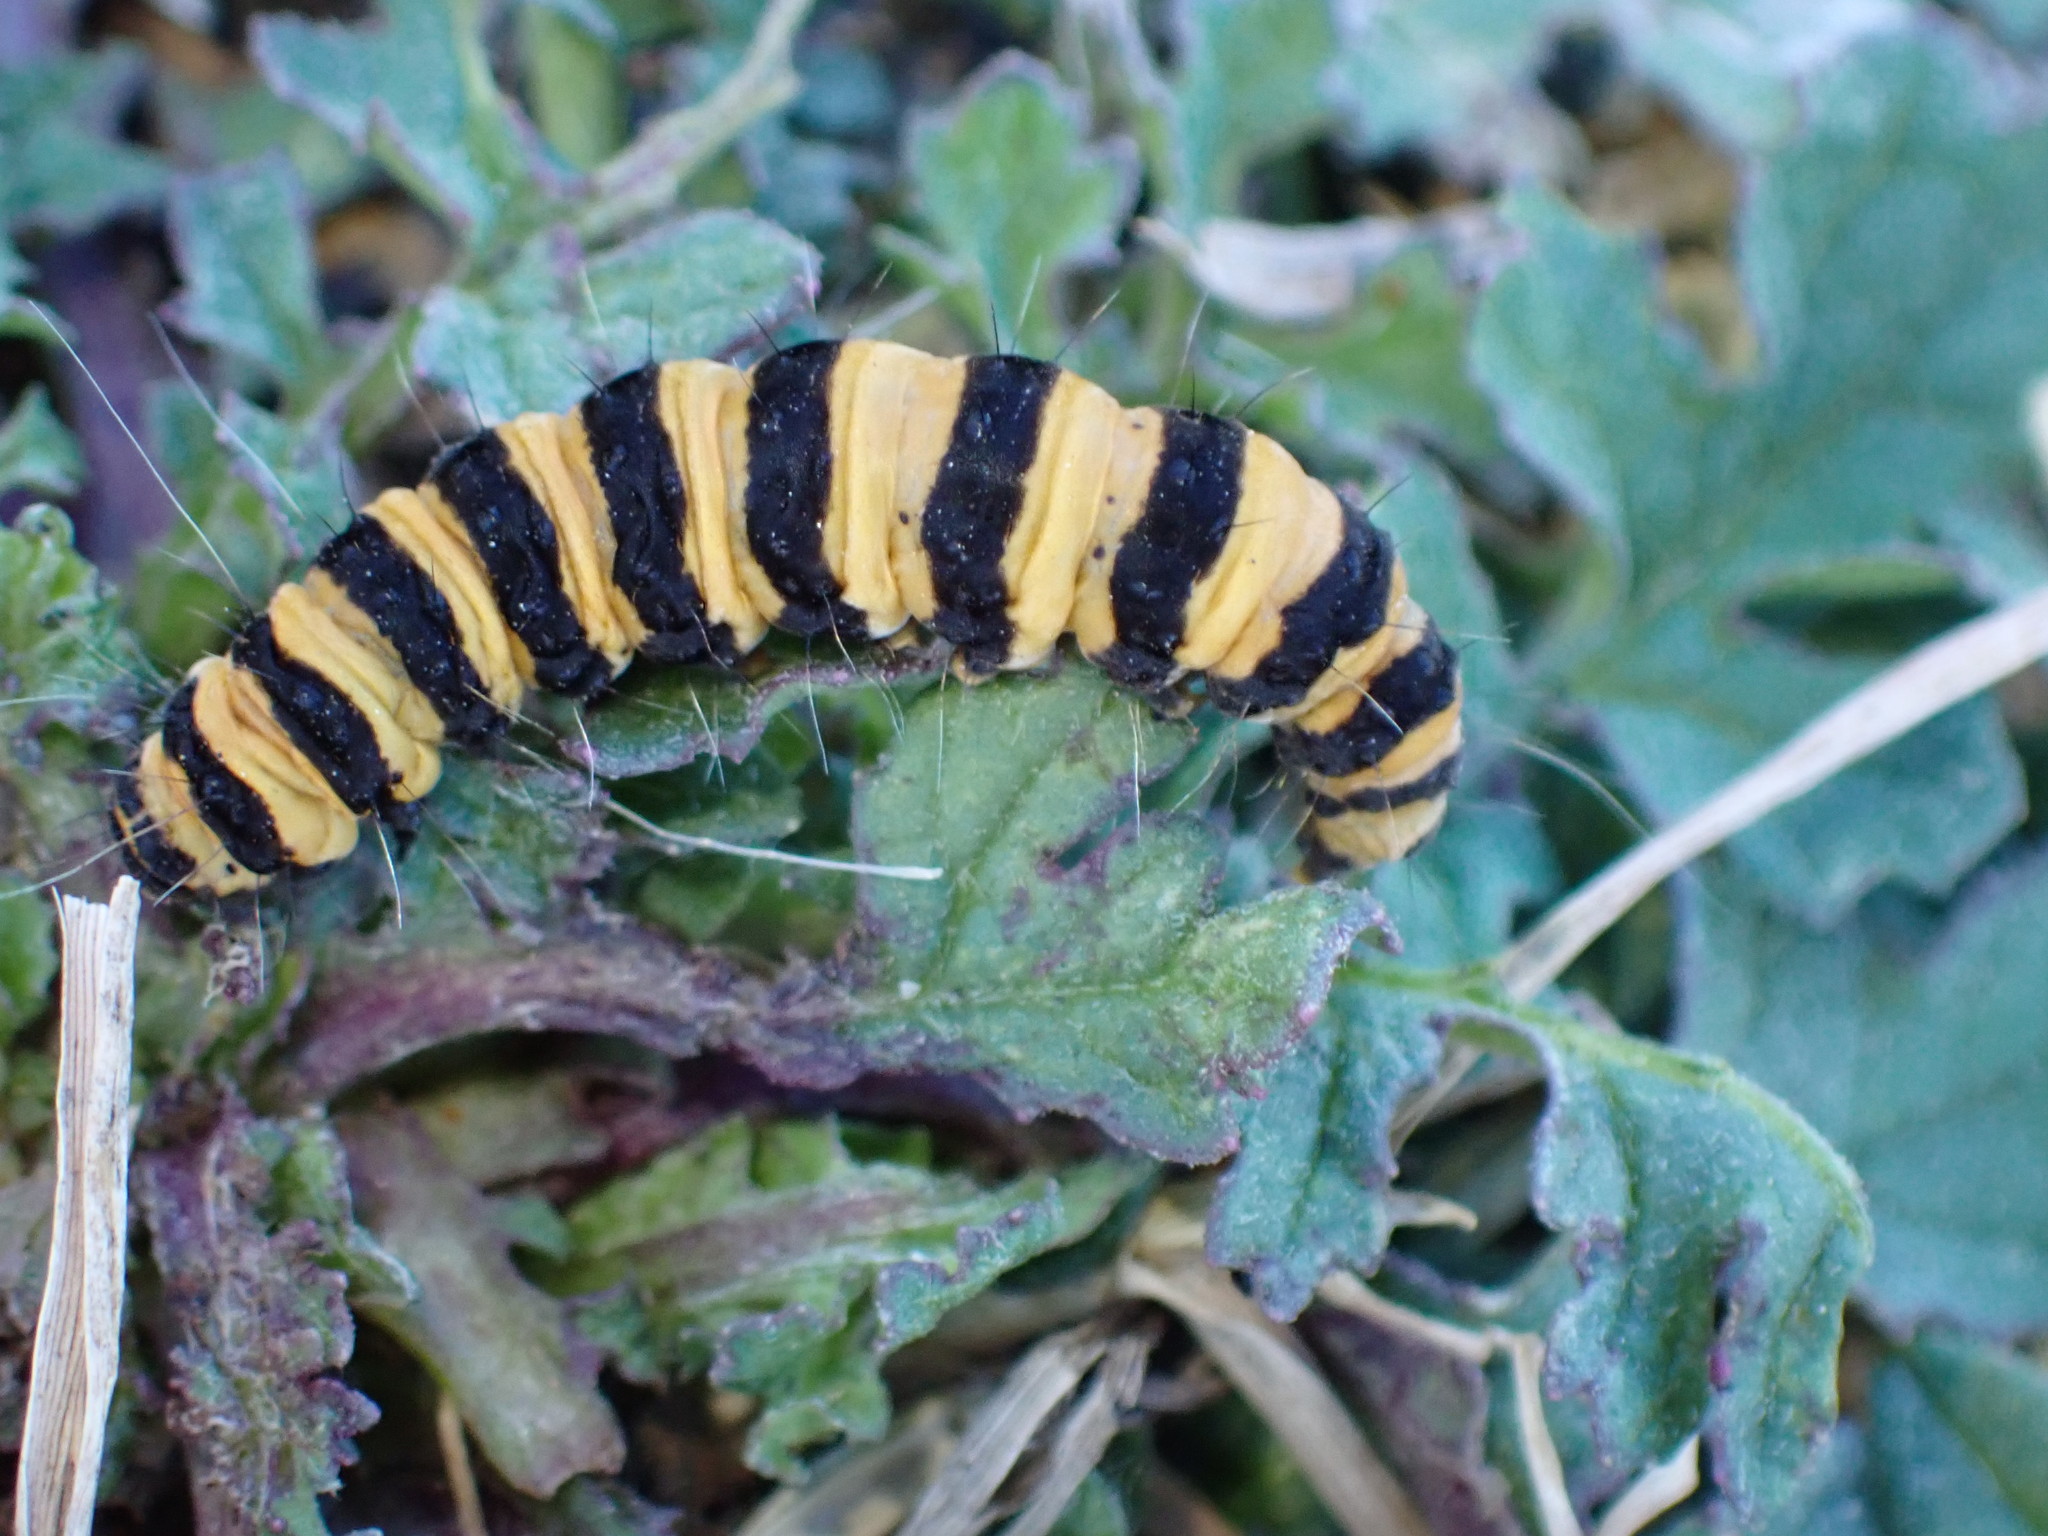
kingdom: Animalia
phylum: Arthropoda
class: Insecta
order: Lepidoptera
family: Erebidae
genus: Tyria
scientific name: Tyria jacobaeae
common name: Cinnabar
